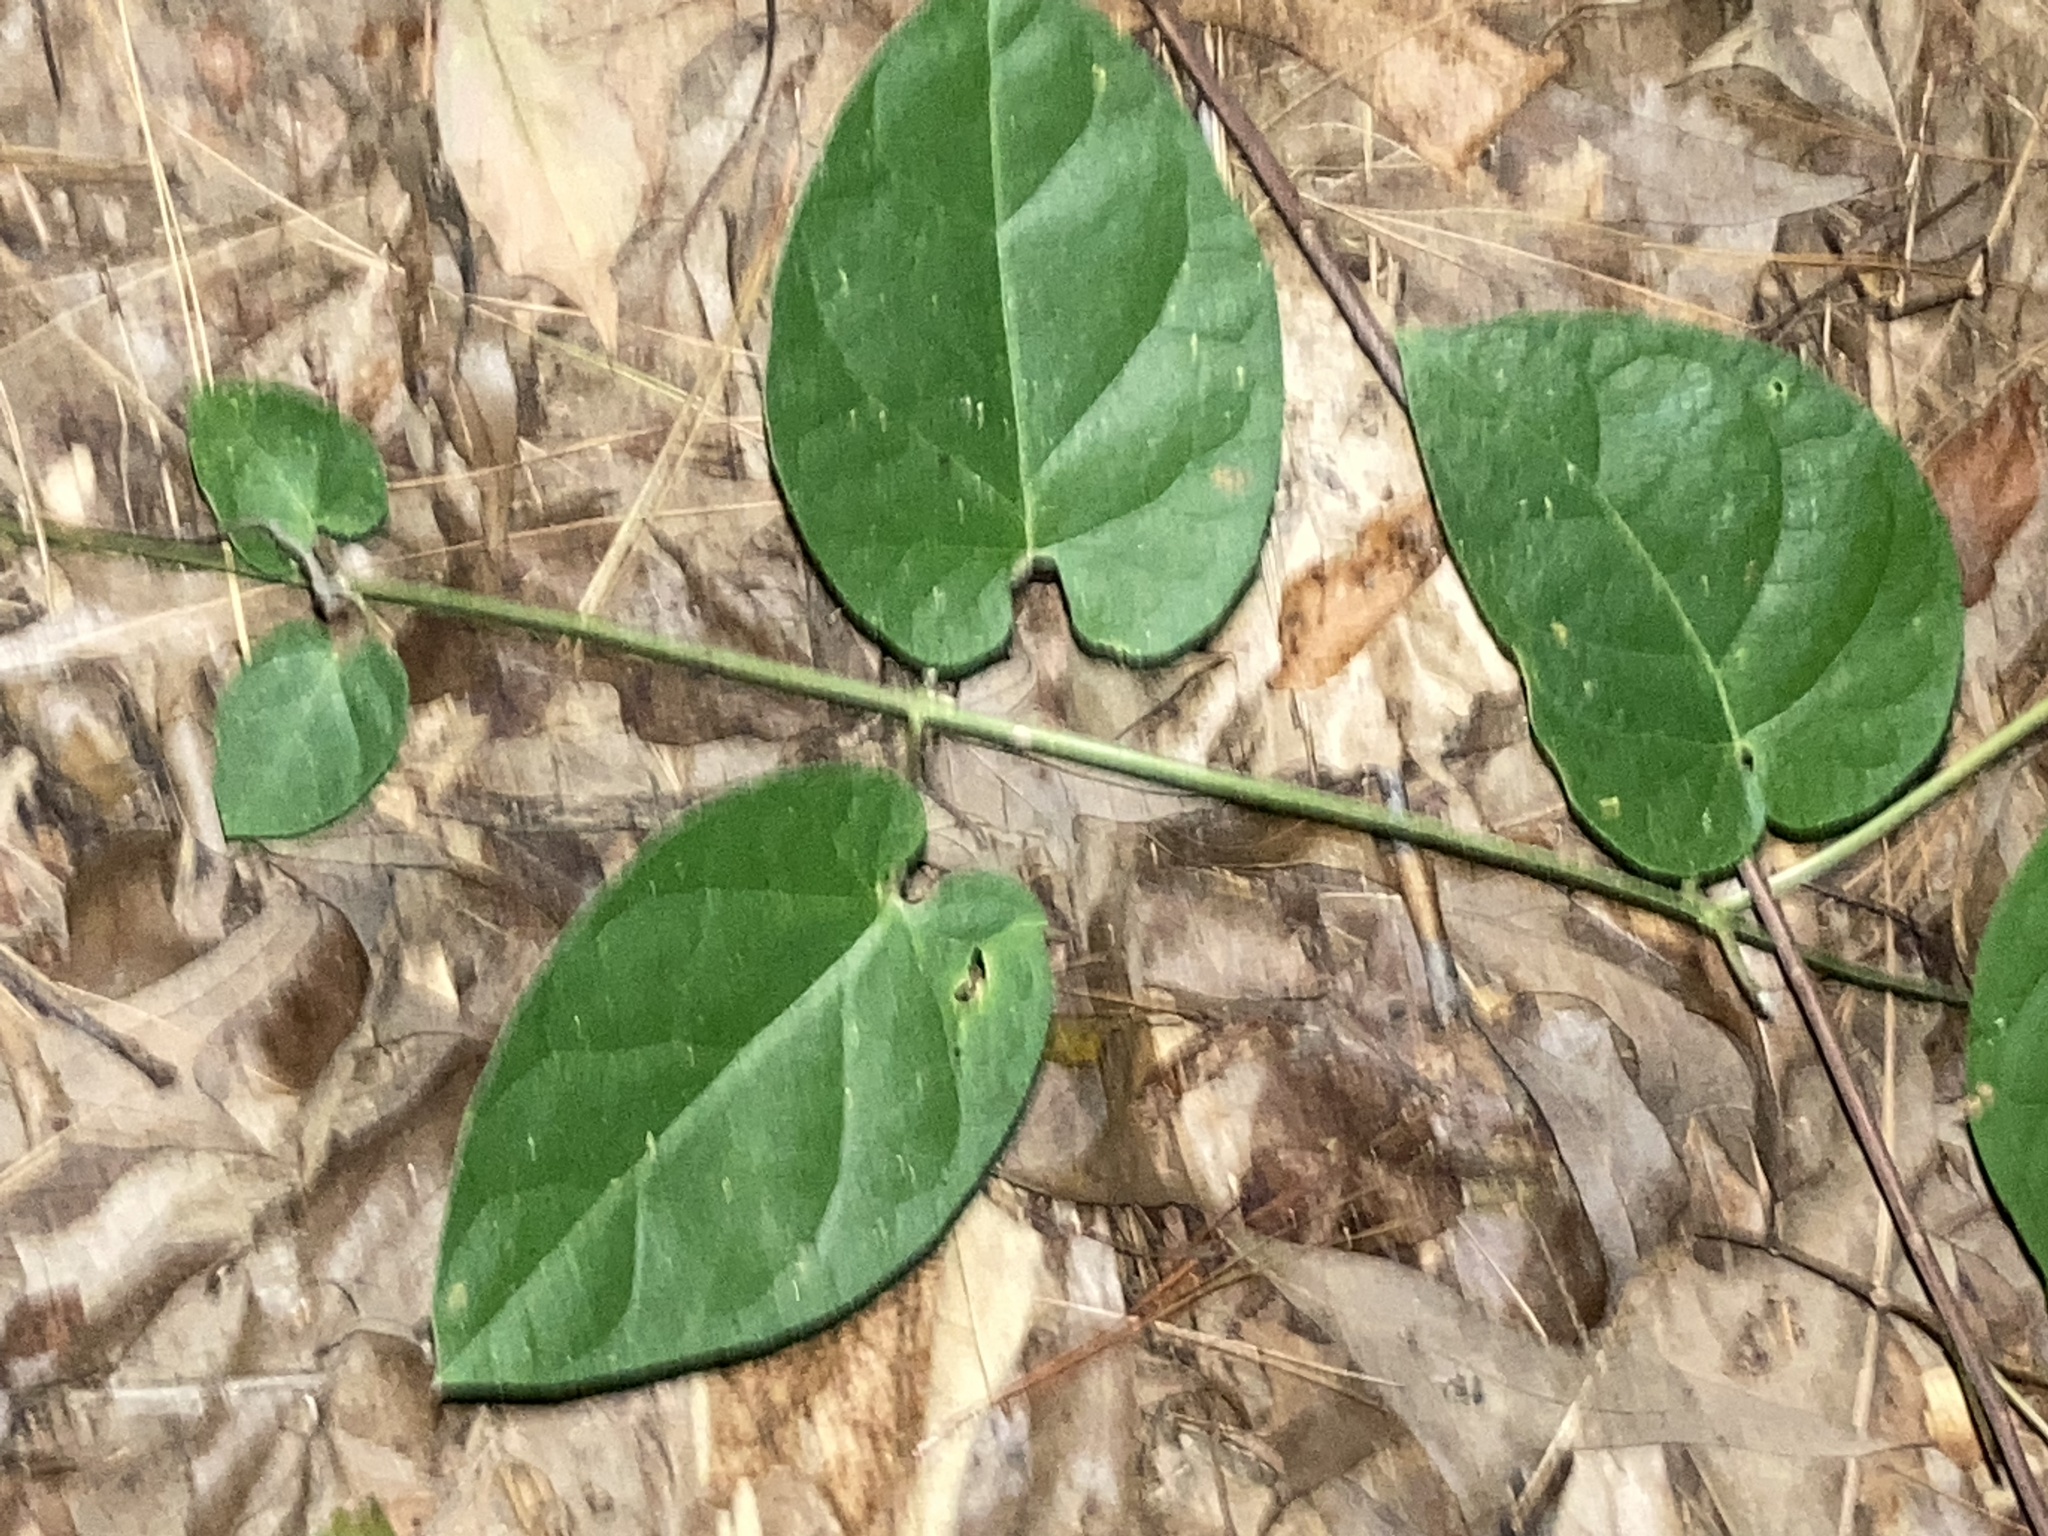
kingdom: Plantae
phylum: Tracheophyta
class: Magnoliopsida
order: Gentianales
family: Apocynaceae
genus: Gonolobus
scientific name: Gonolobus suberosus
